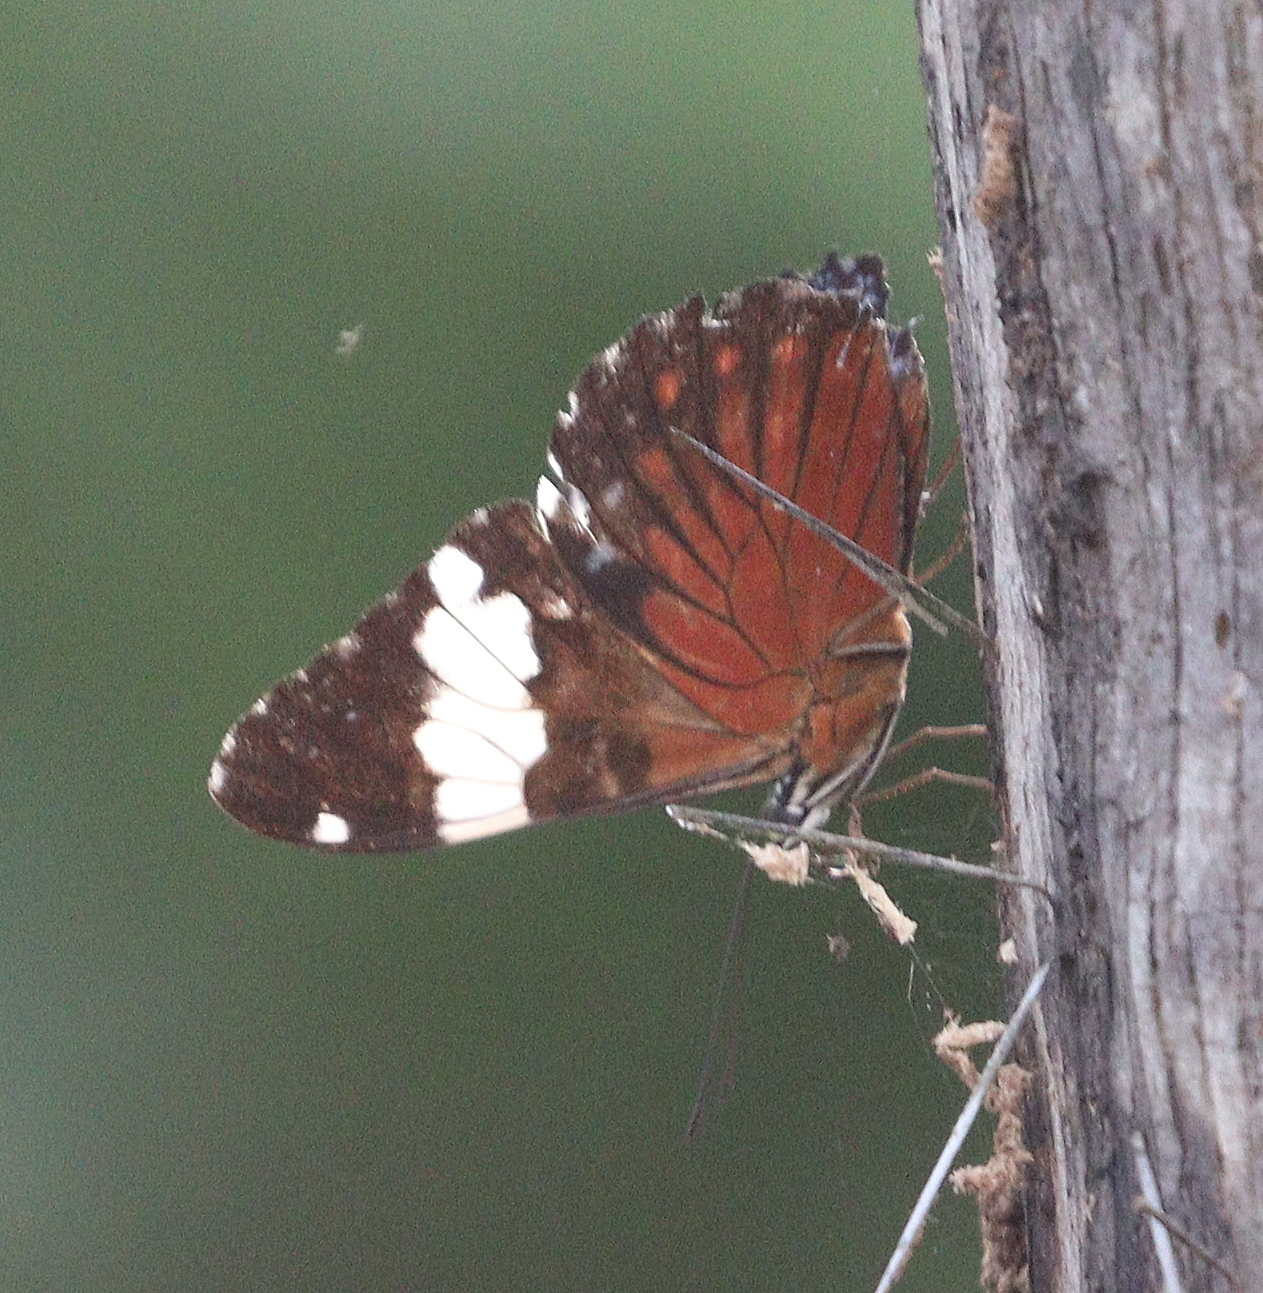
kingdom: Animalia
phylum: Arthropoda
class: Insecta
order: Lepidoptera
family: Nymphalidae
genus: Hamadryas
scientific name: Hamadryas amphinome
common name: Red cracker
